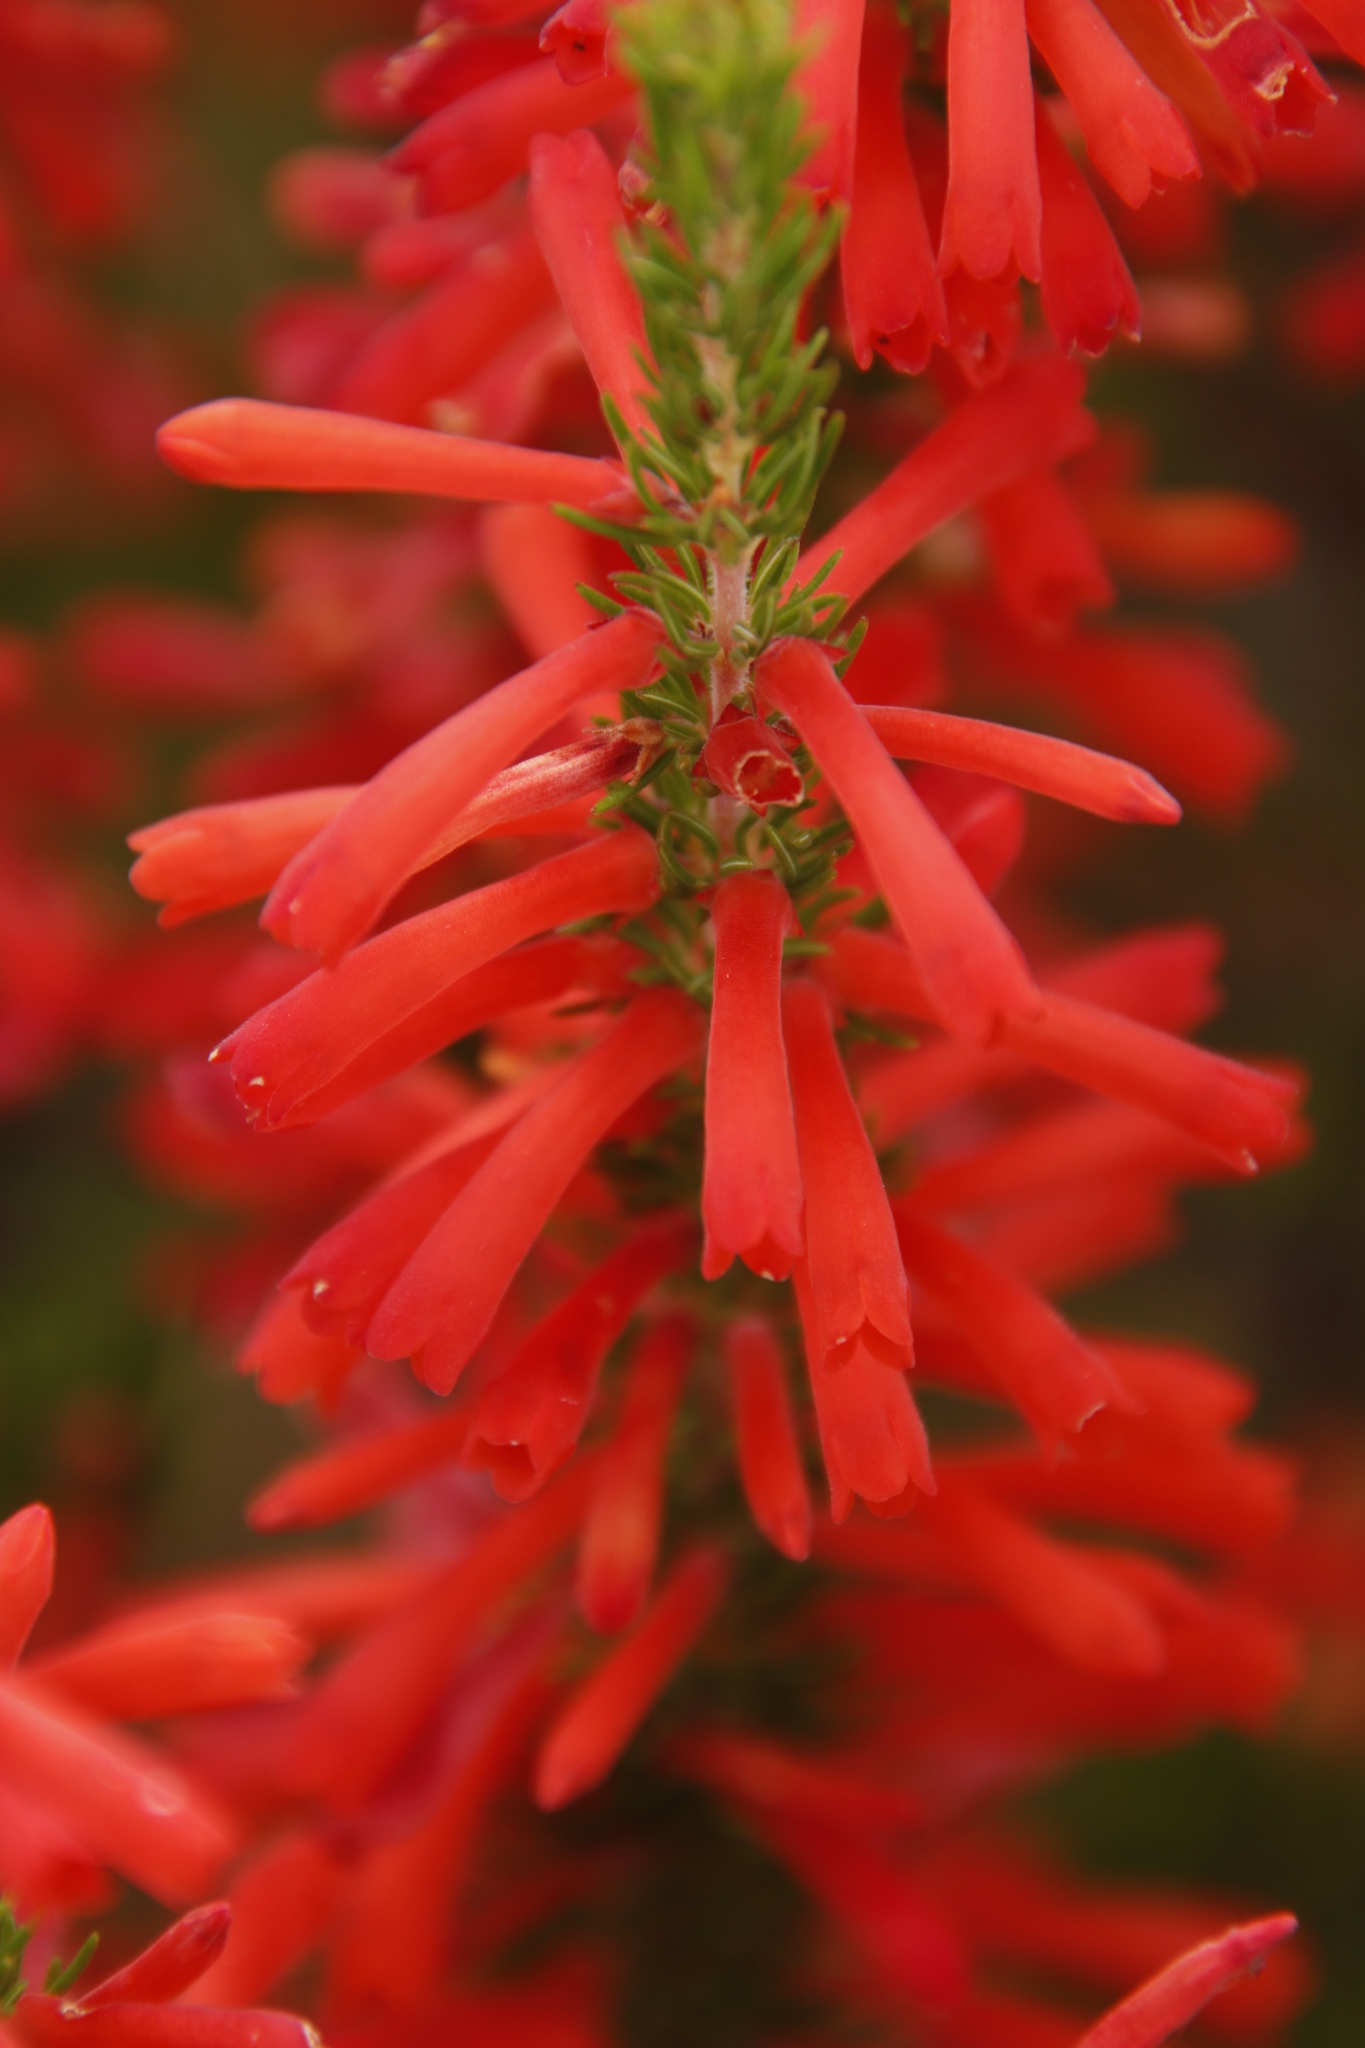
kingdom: Plantae
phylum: Tracheophyta
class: Magnoliopsida
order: Ericales
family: Ericaceae
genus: Erica
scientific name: Erica pillansii
